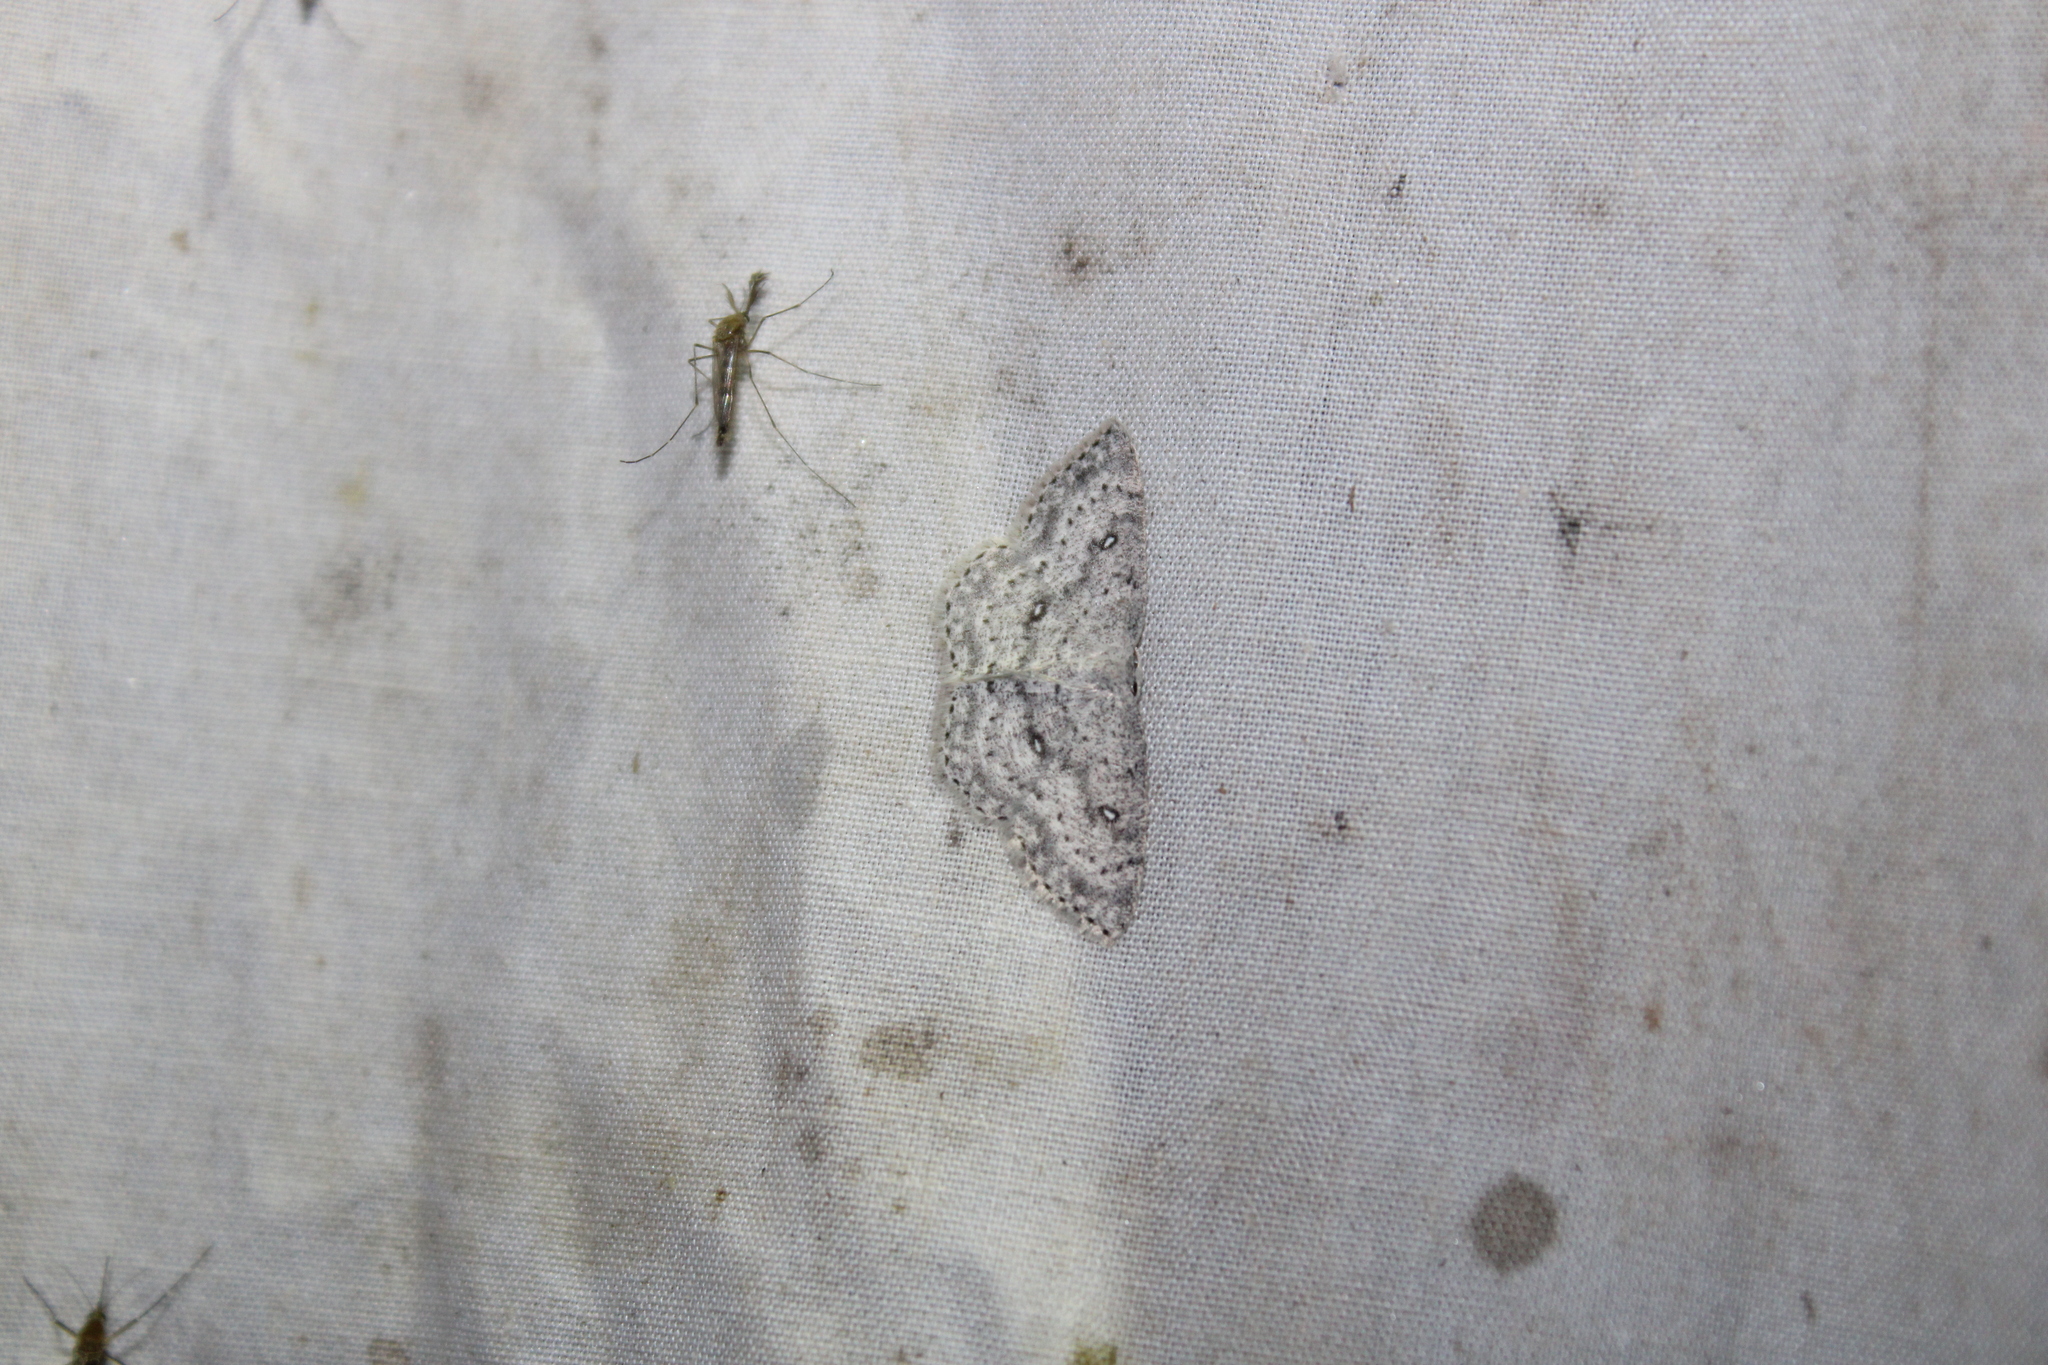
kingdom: Animalia
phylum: Arthropoda
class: Insecta
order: Lepidoptera
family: Geometridae
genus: Cyclophora
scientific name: Cyclophora pendulinaria
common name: Sweet fern geometer
